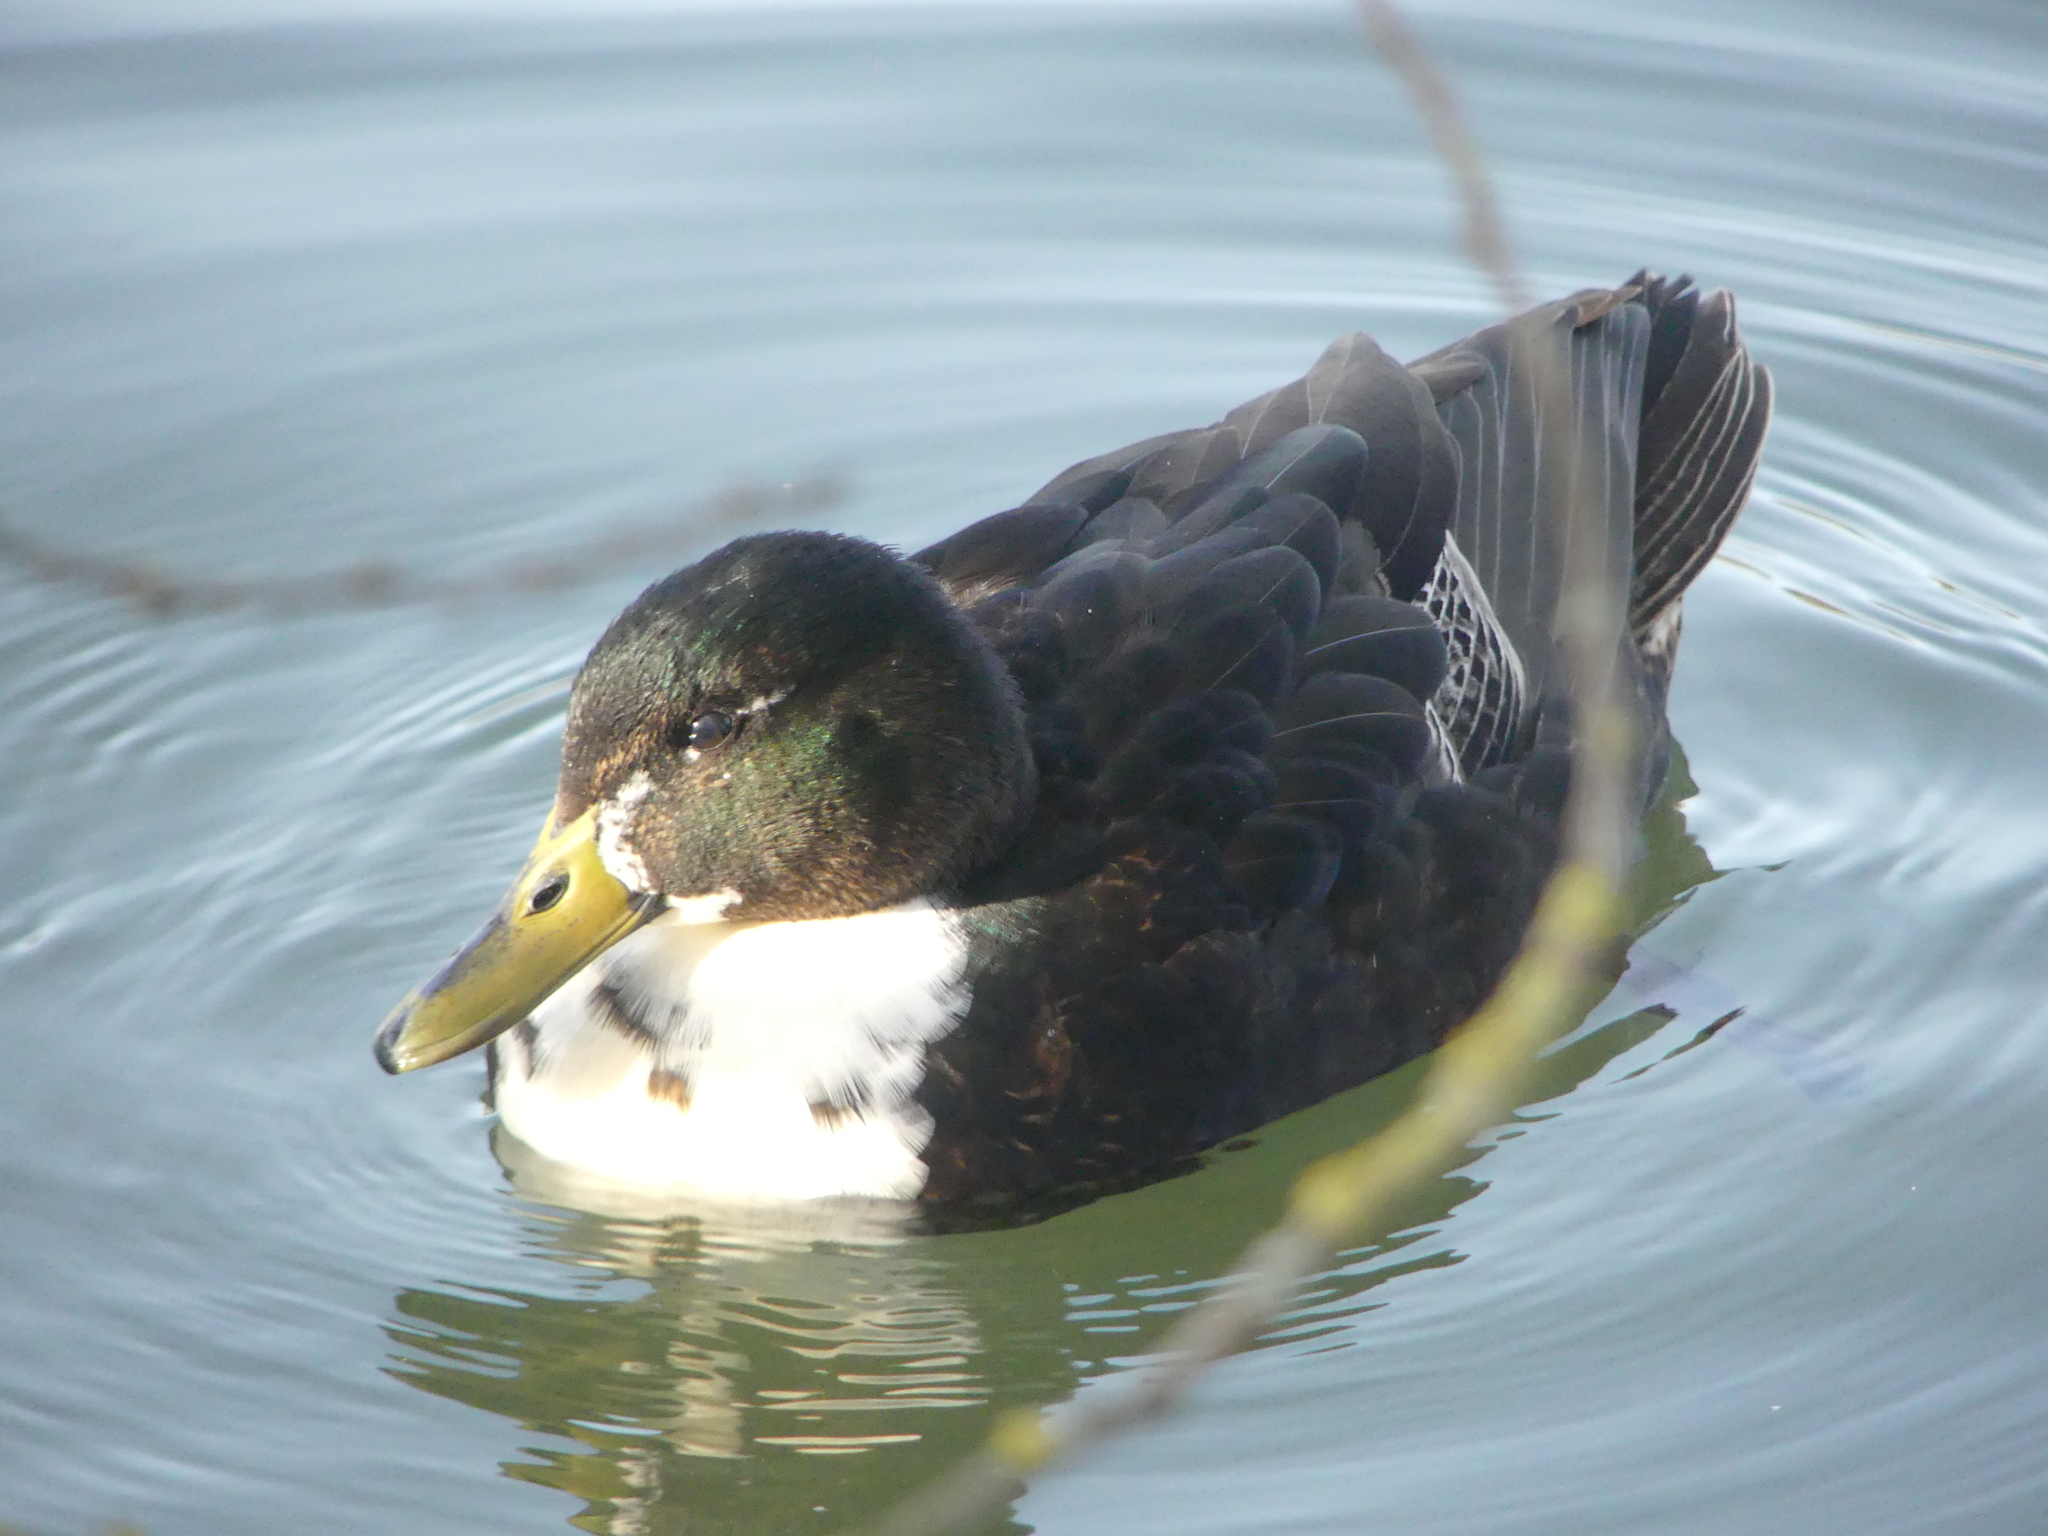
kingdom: Animalia
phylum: Chordata
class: Aves
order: Anseriformes
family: Anatidae
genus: Anas
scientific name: Anas platyrhynchos
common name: Mallard
